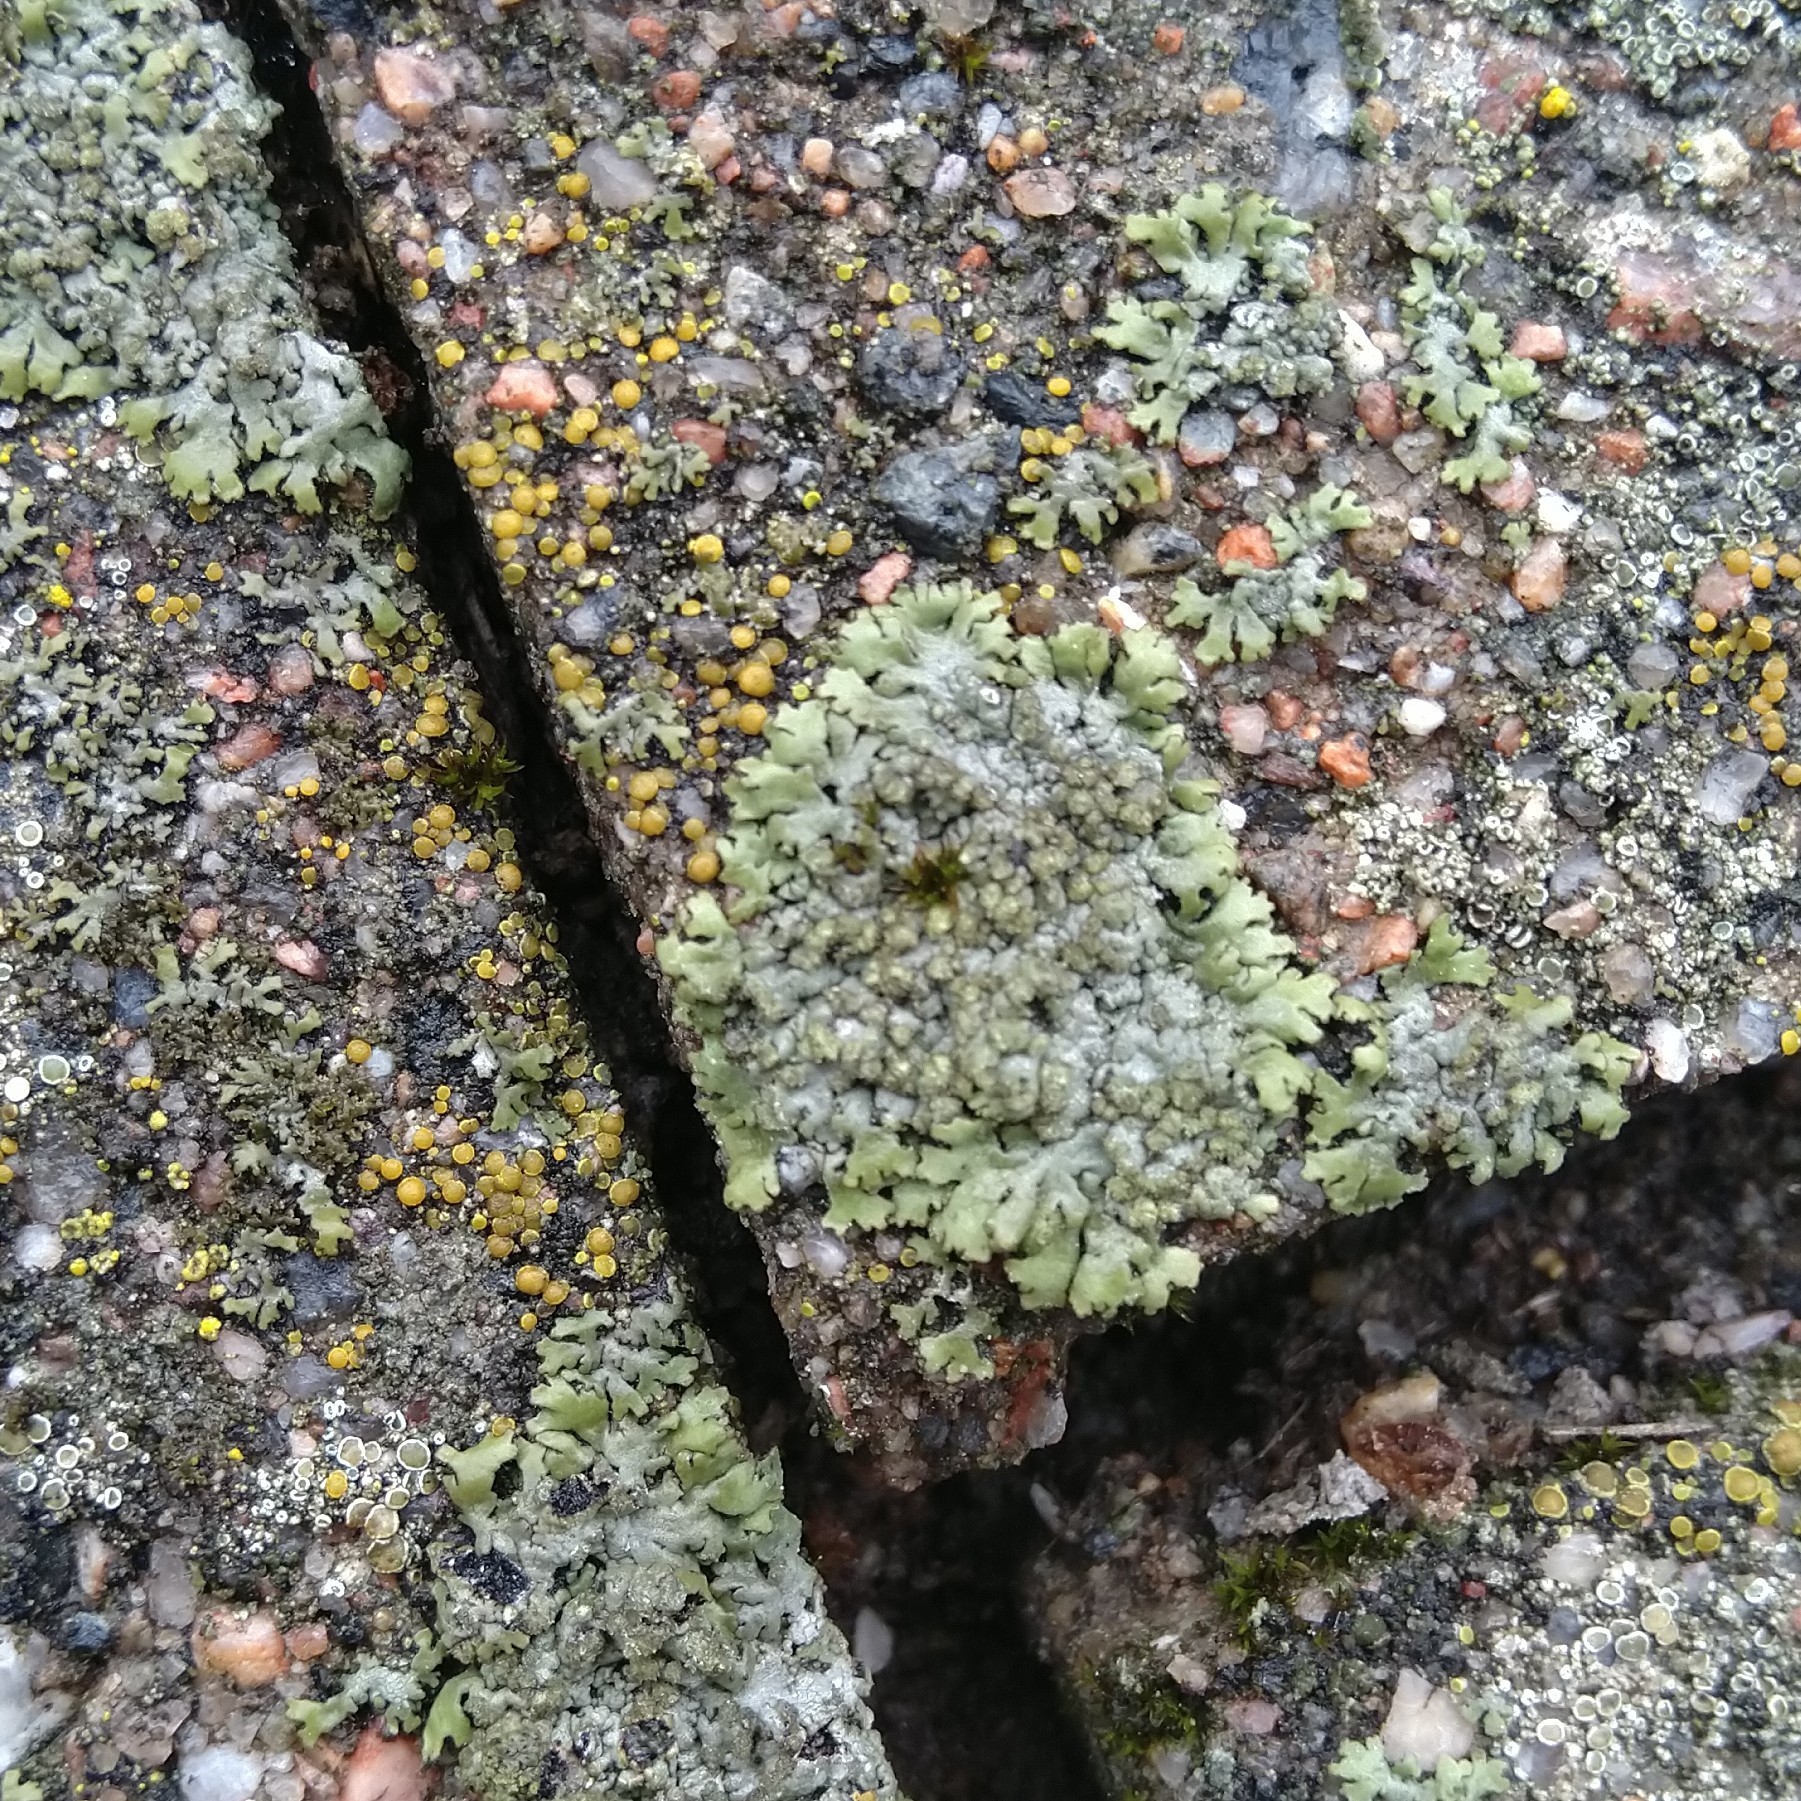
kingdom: Fungi
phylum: Ascomycota
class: Lecanoromycetes
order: Caliciales
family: Physciaceae
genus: Phaeophyscia
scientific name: Phaeophyscia orbicularis
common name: Mealy shadow lichen
